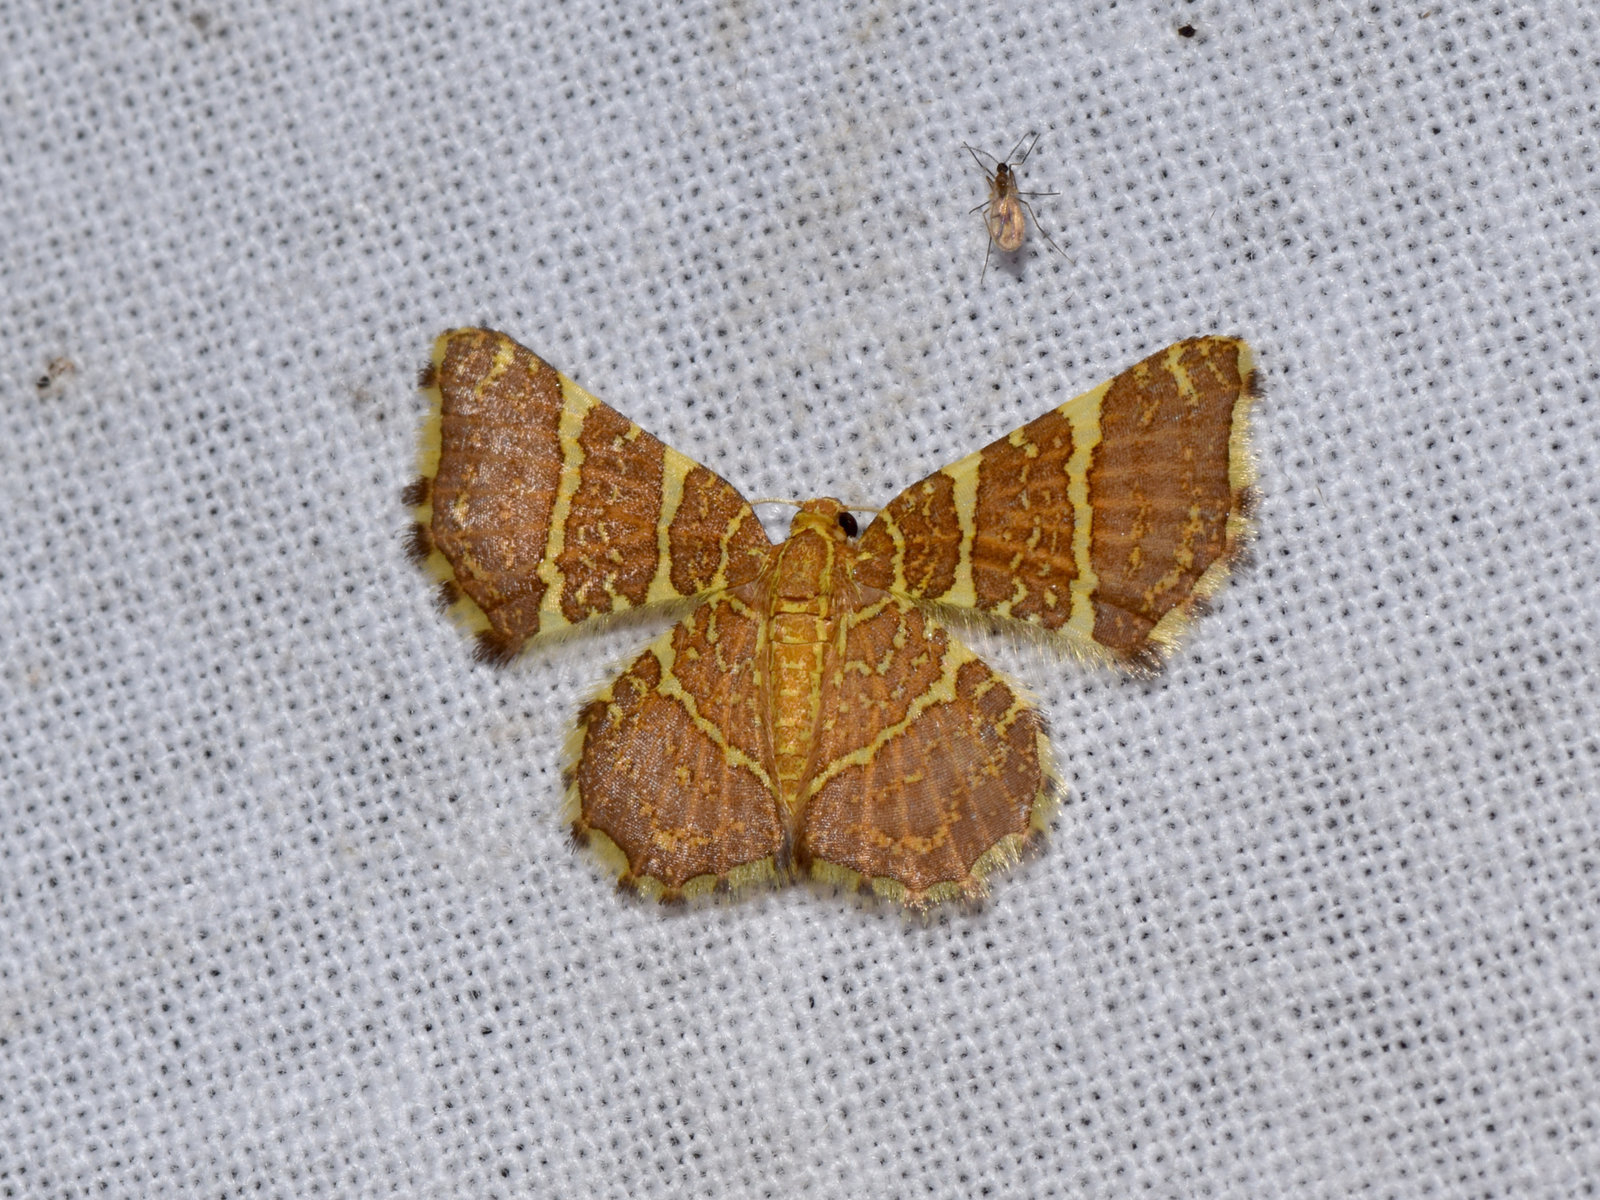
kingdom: Animalia
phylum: Arthropoda
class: Insecta
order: Lepidoptera
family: Geometridae
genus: Hastina
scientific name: Hastina pluristrigata
